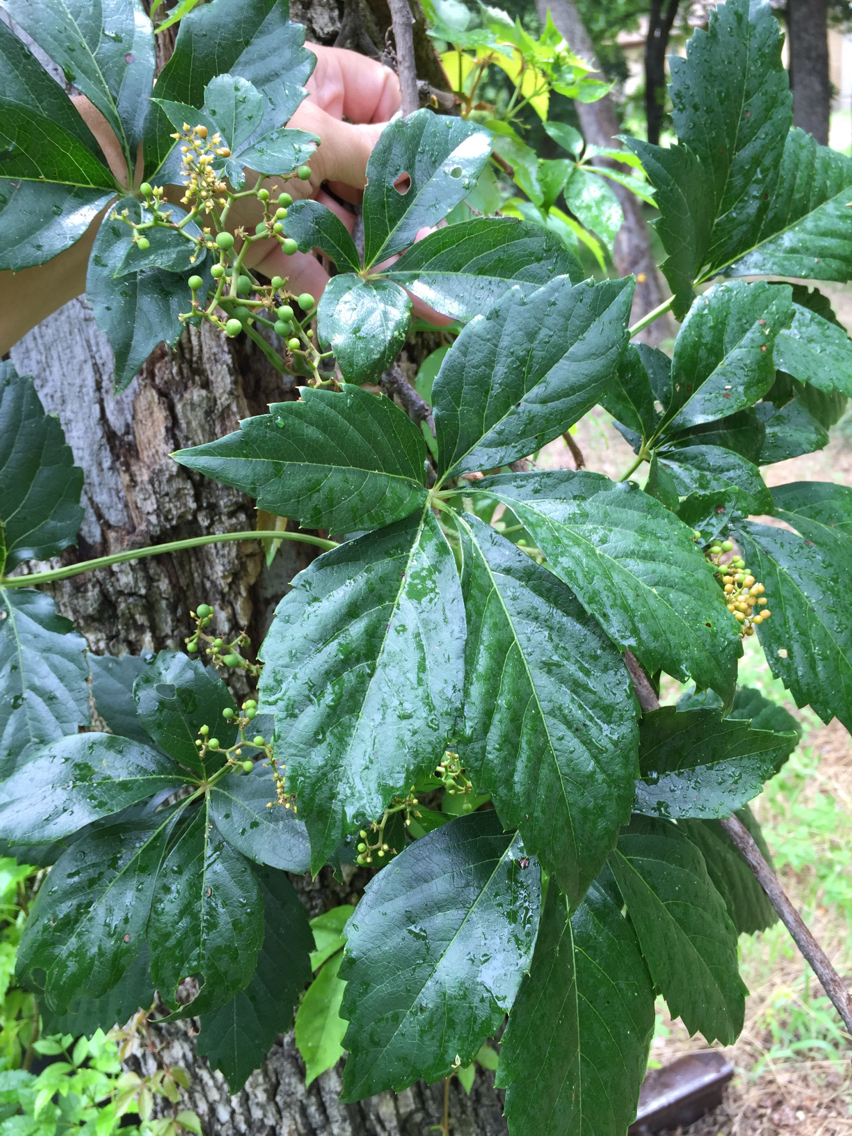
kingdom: Plantae
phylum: Tracheophyta
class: Magnoliopsida
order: Vitales
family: Vitaceae
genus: Parthenocissus
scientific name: Parthenocissus quinquefolia
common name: Virginia-creeper
